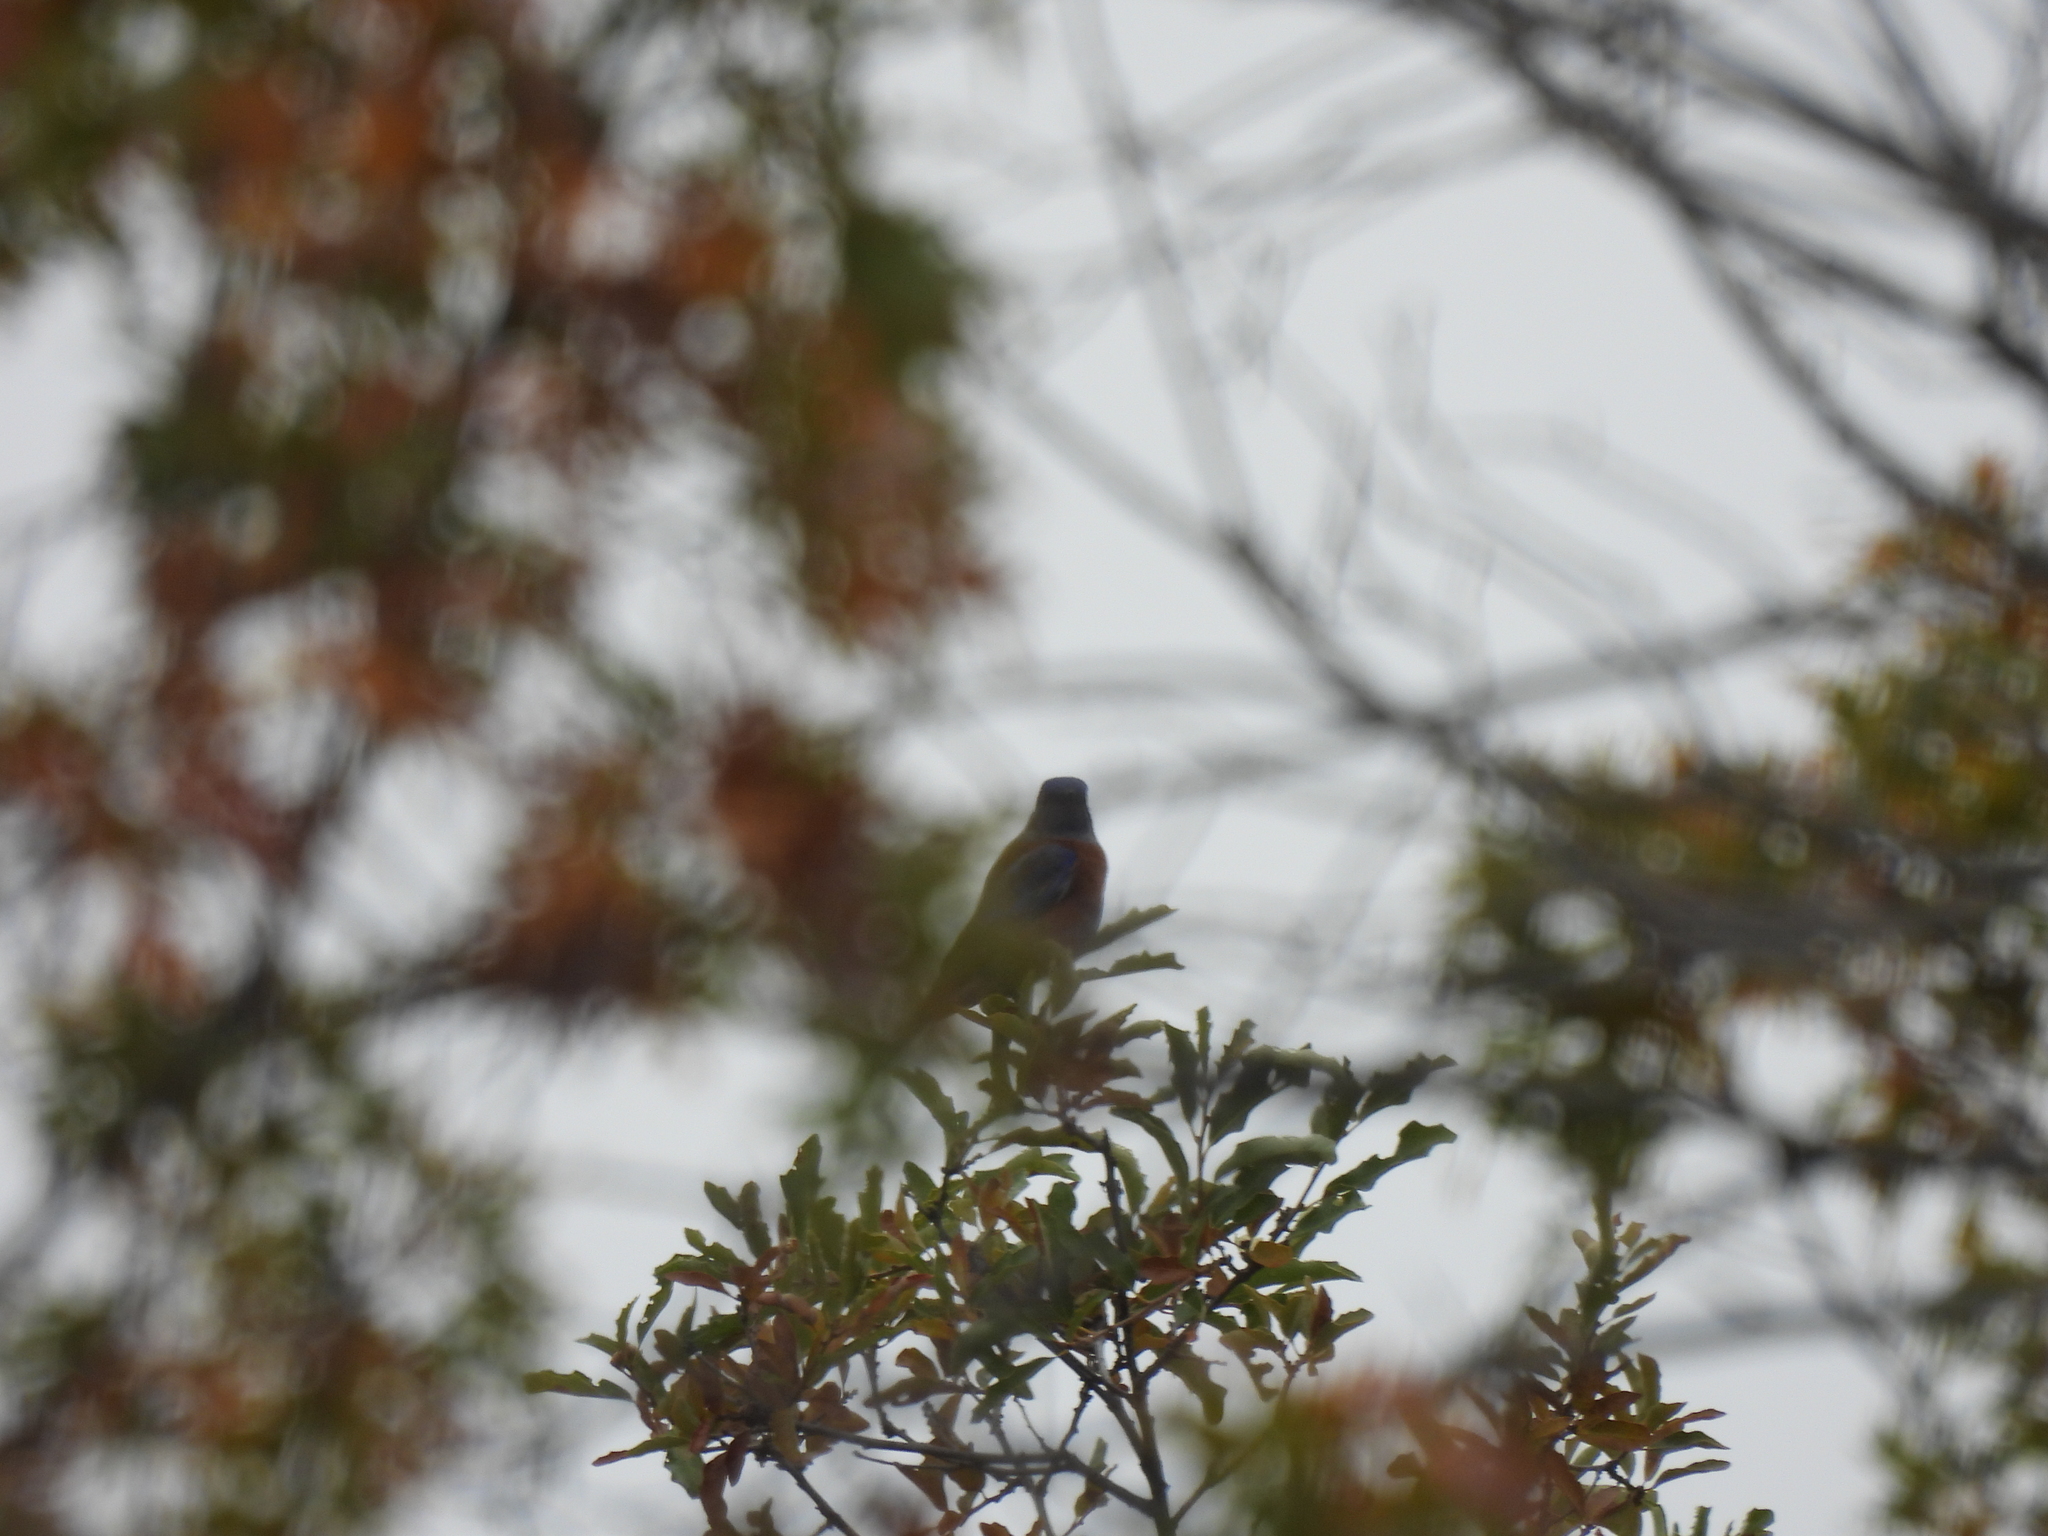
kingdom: Animalia
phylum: Chordata
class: Aves
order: Passeriformes
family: Turdidae
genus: Sialia
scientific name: Sialia mexicana
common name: Western bluebird
